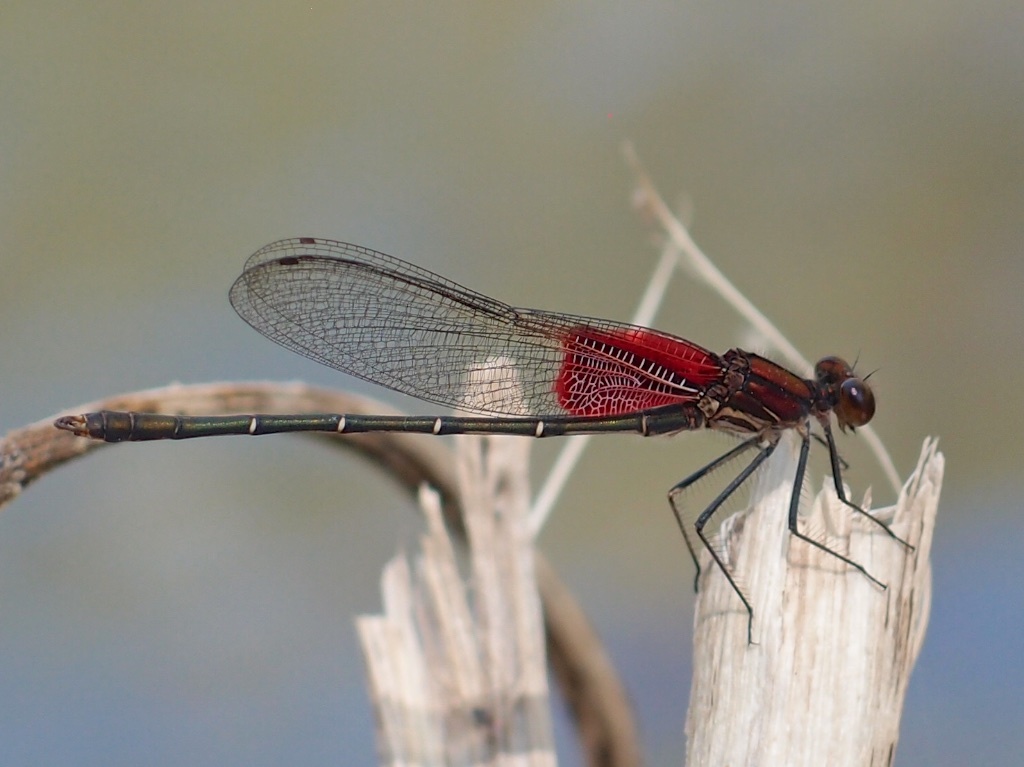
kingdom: Animalia
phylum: Arthropoda
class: Insecta
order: Odonata
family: Calopterygidae
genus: Hetaerina
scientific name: Hetaerina americana
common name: American rubyspot
